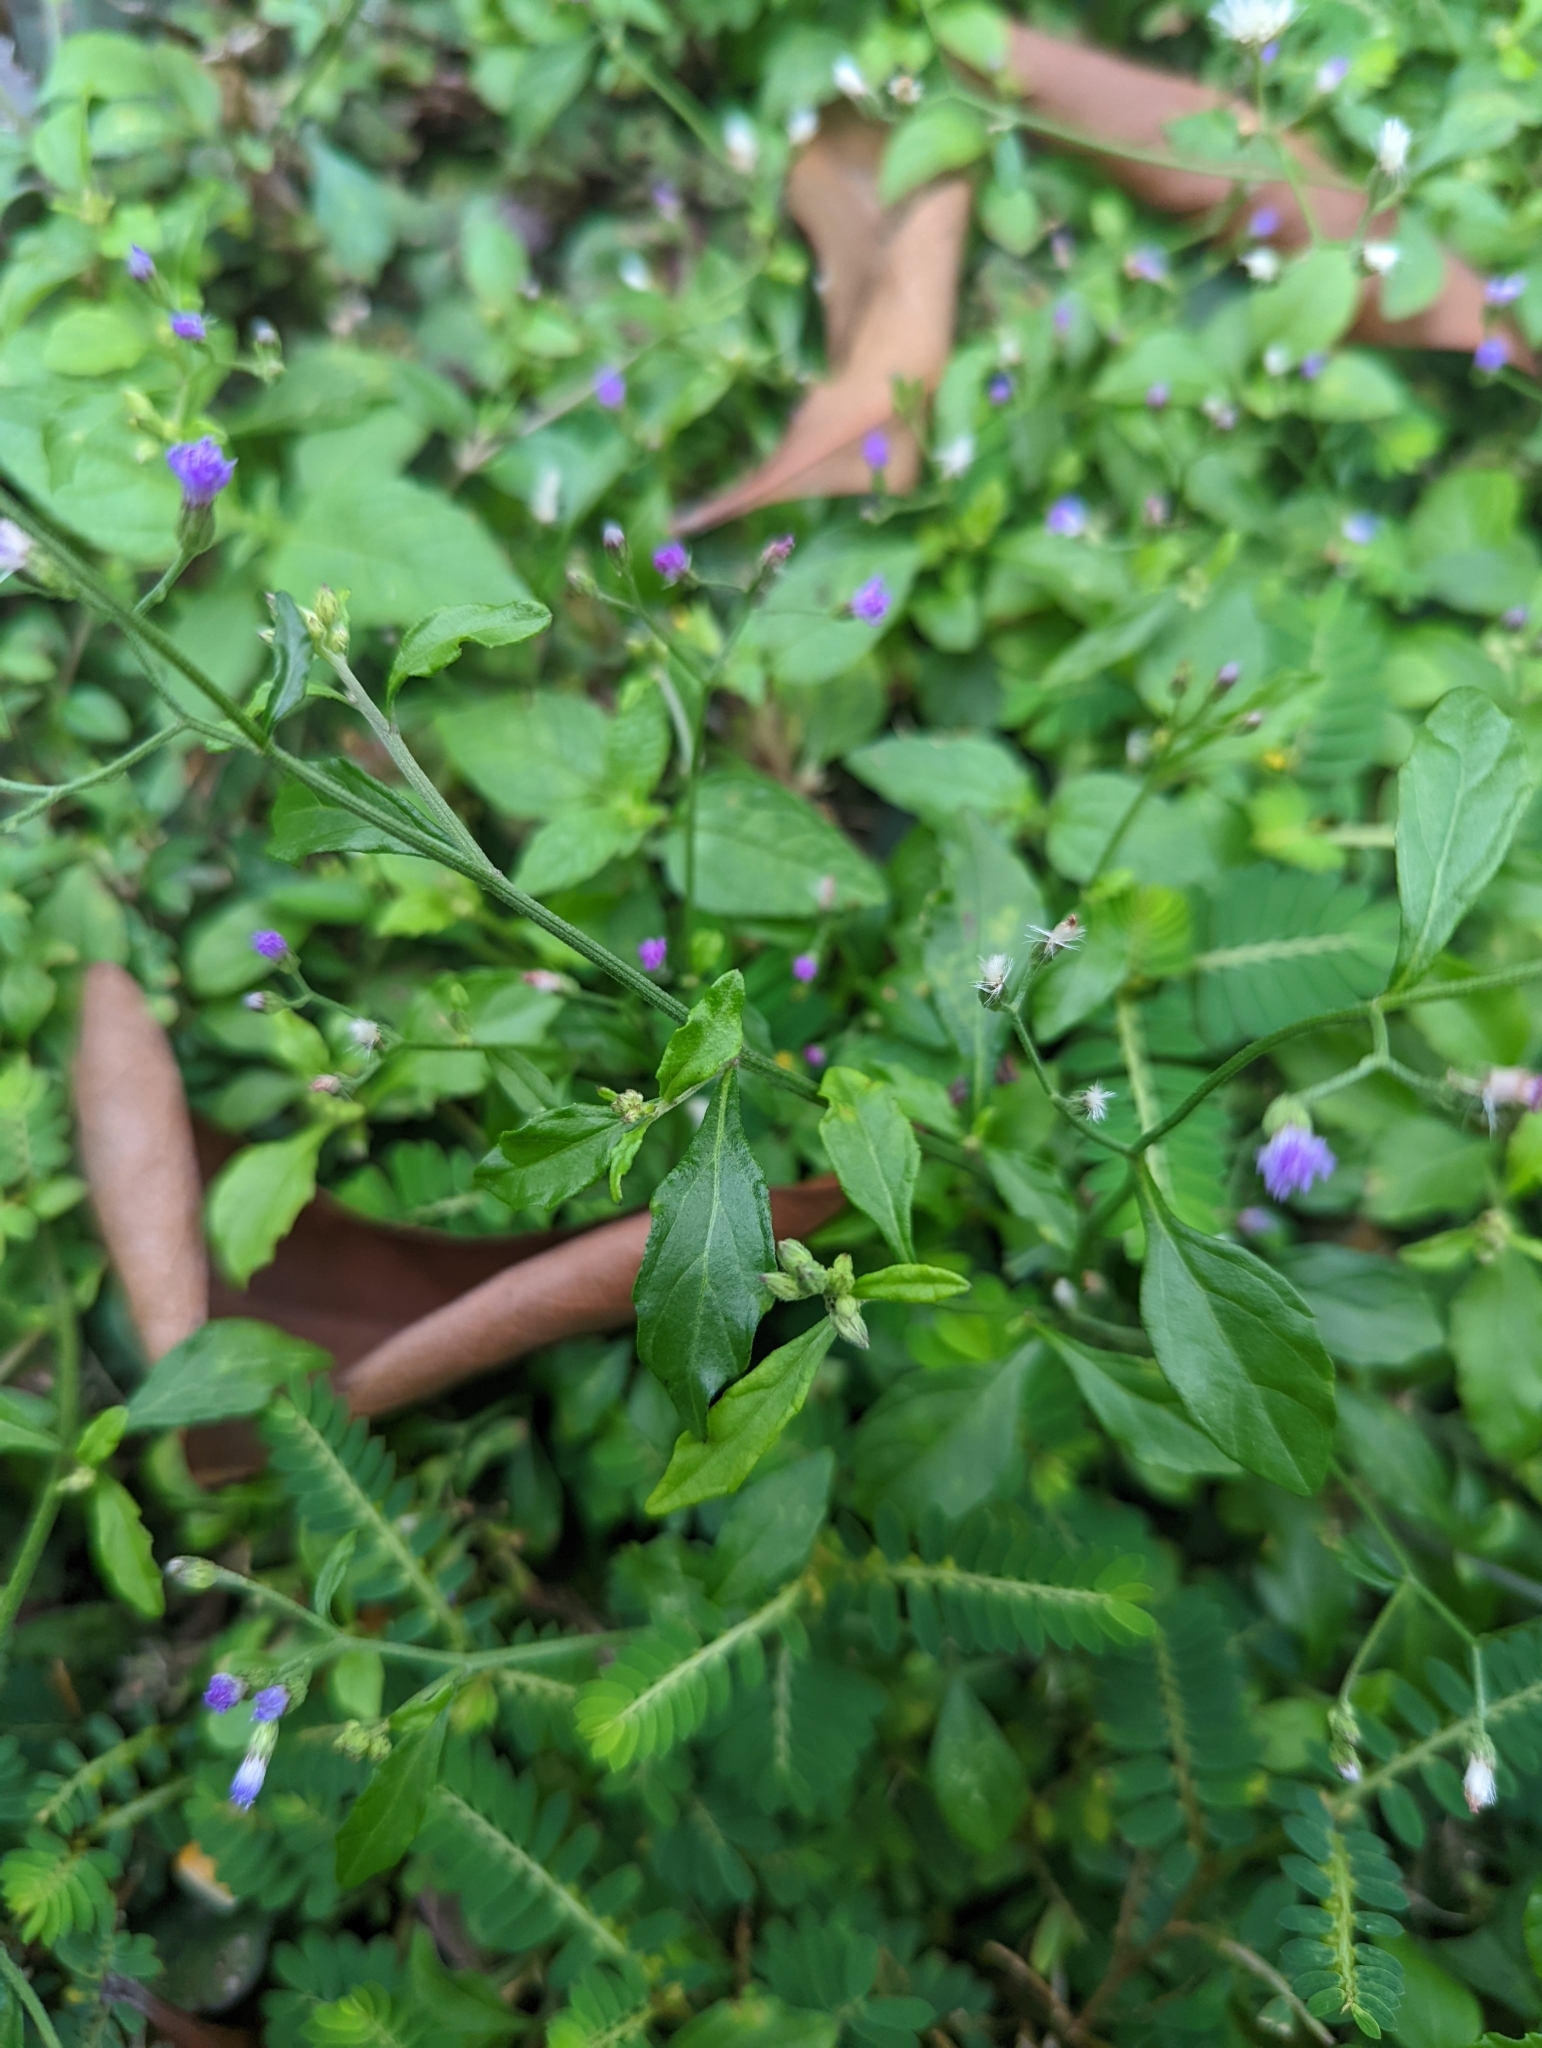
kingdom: Plantae
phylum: Tracheophyta
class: Magnoliopsida
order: Asterales
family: Asteraceae
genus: Cyanthillium
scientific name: Cyanthillium cinereum
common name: Little ironweed
